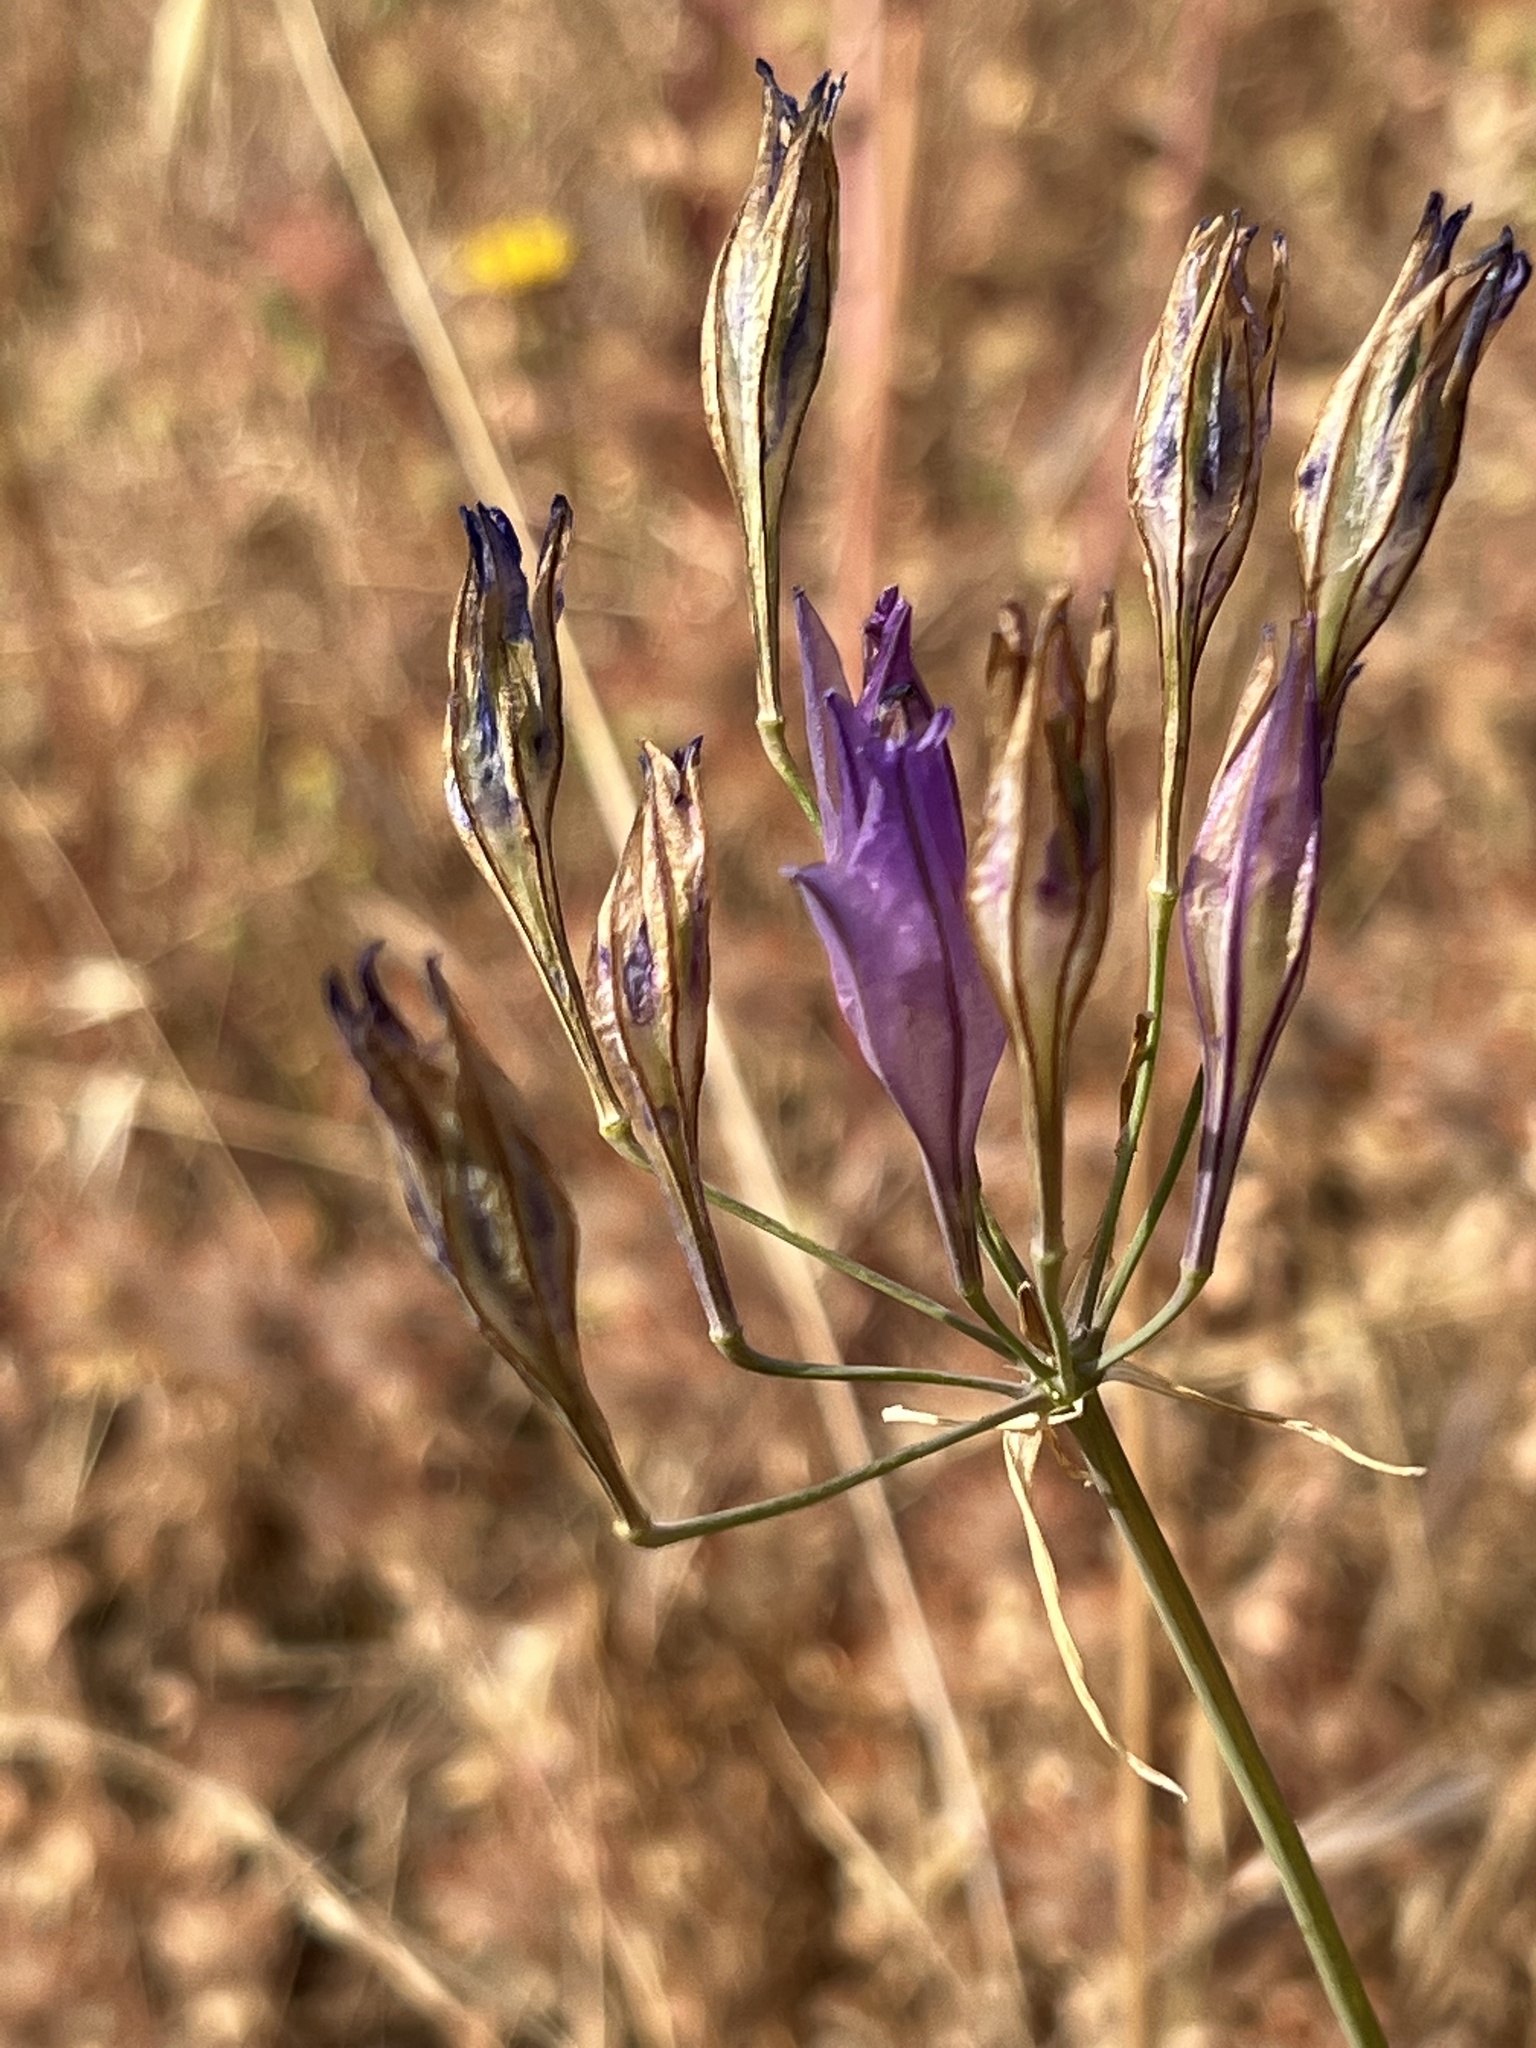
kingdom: Plantae
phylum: Tracheophyta
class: Liliopsida
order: Asparagales
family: Asparagaceae
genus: Triteleia
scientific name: Triteleia laxa
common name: Triplet-lily
